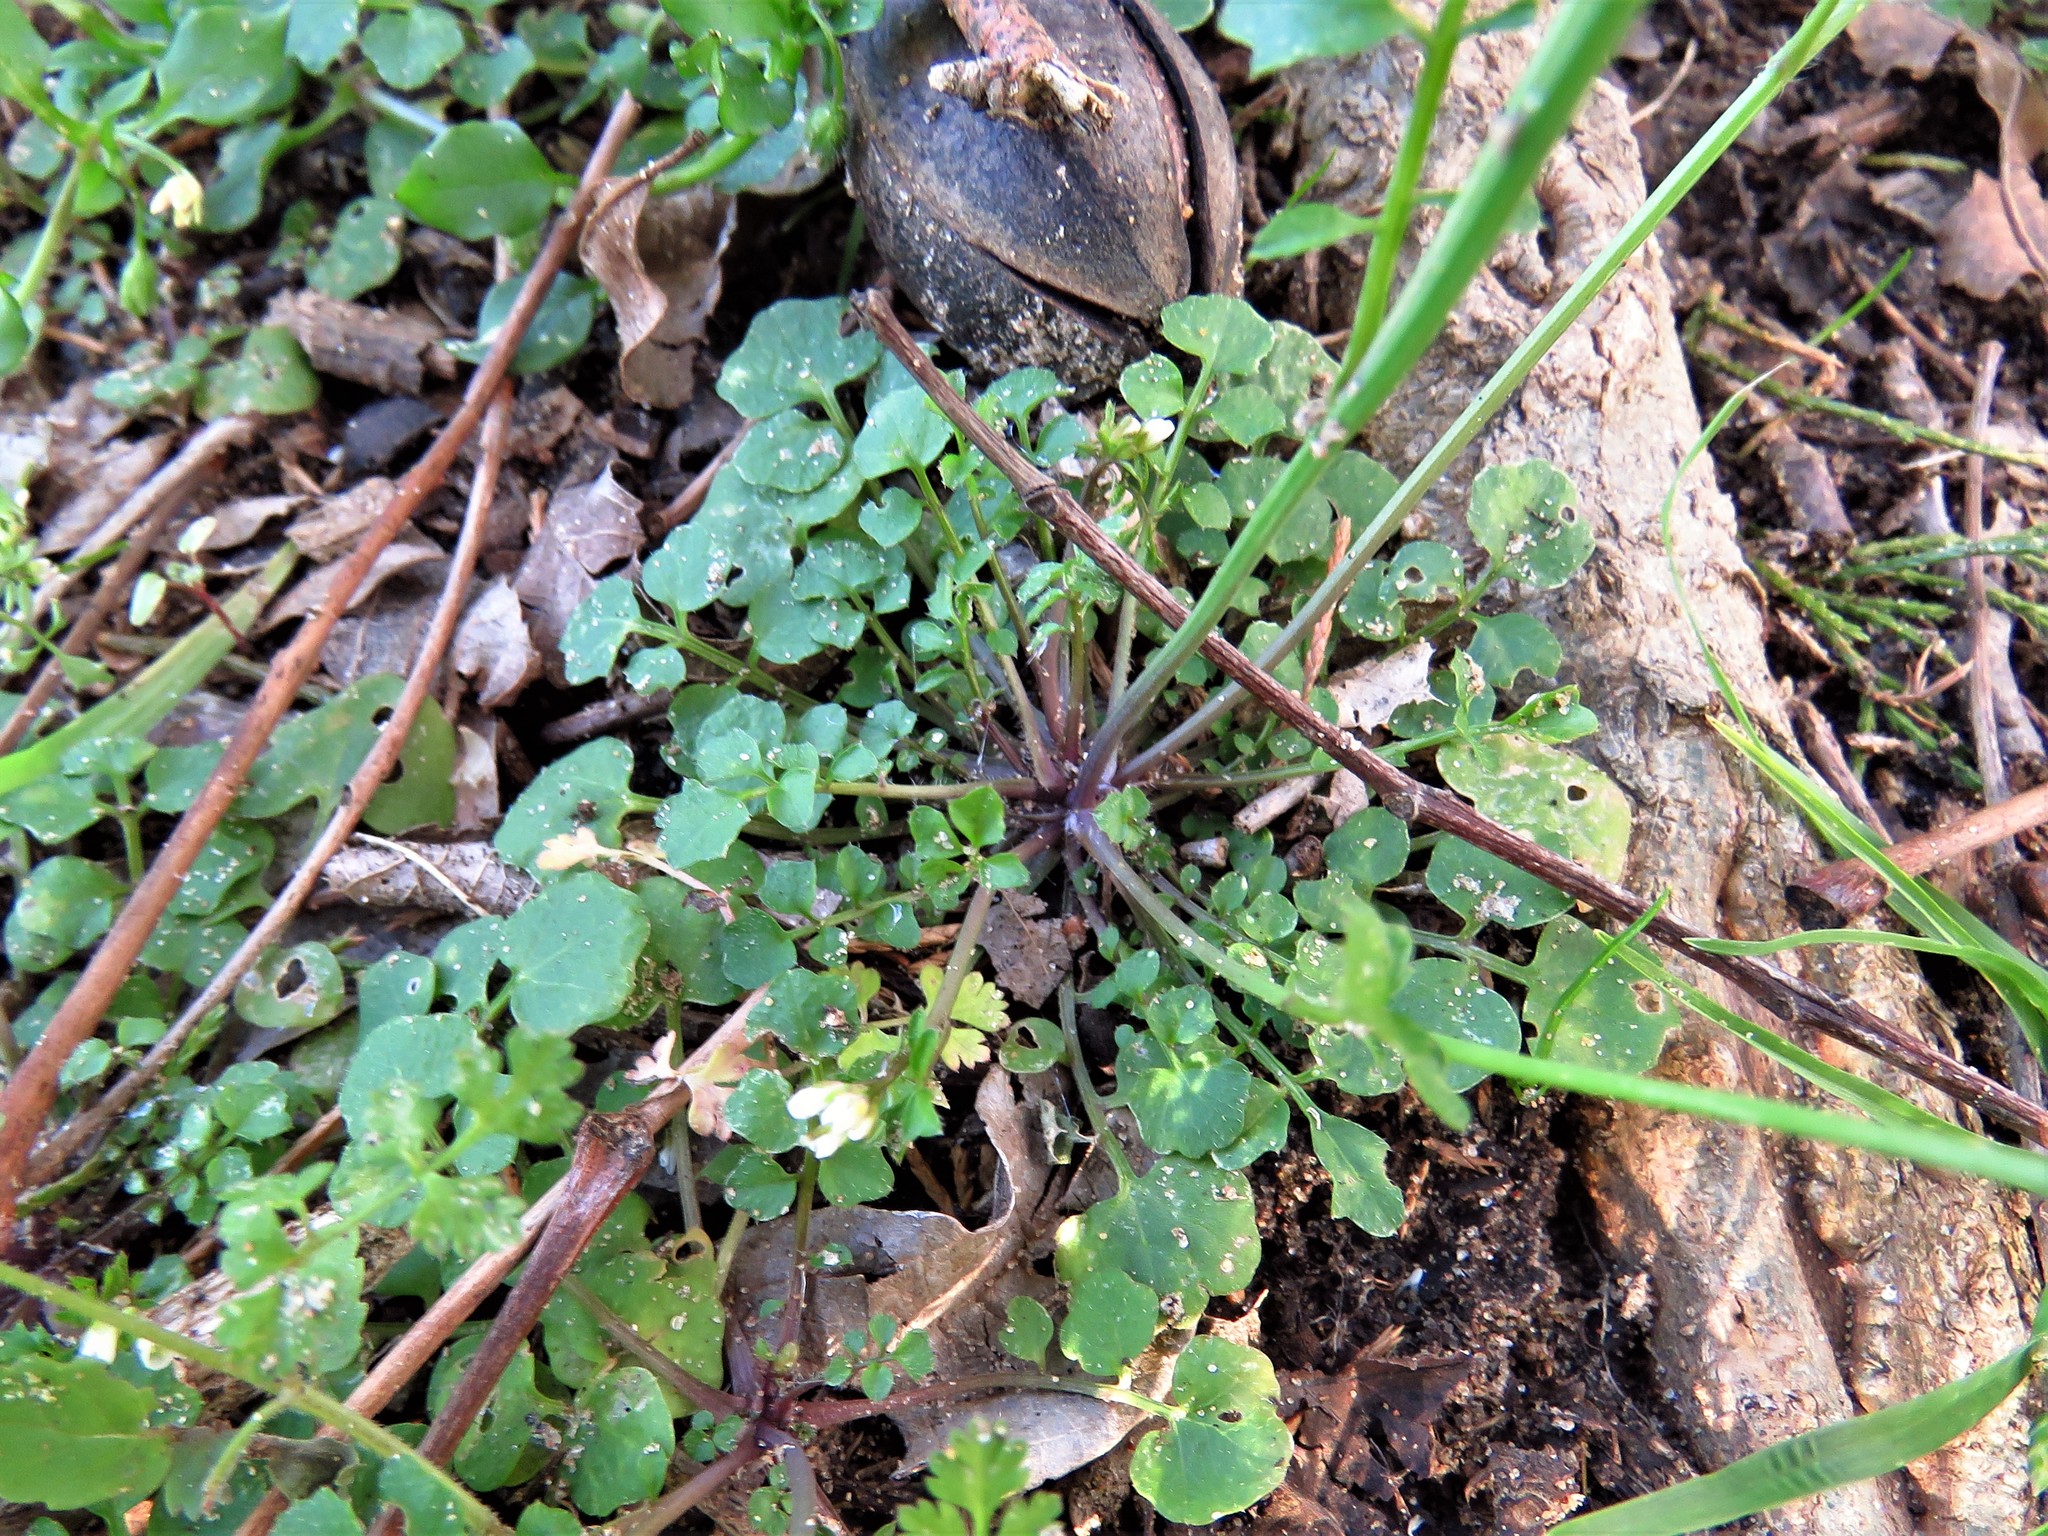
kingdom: Plantae
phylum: Tracheophyta
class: Magnoliopsida
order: Brassicales
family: Brassicaceae
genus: Cardamine
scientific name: Cardamine hirsuta
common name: Hairy bittercress
